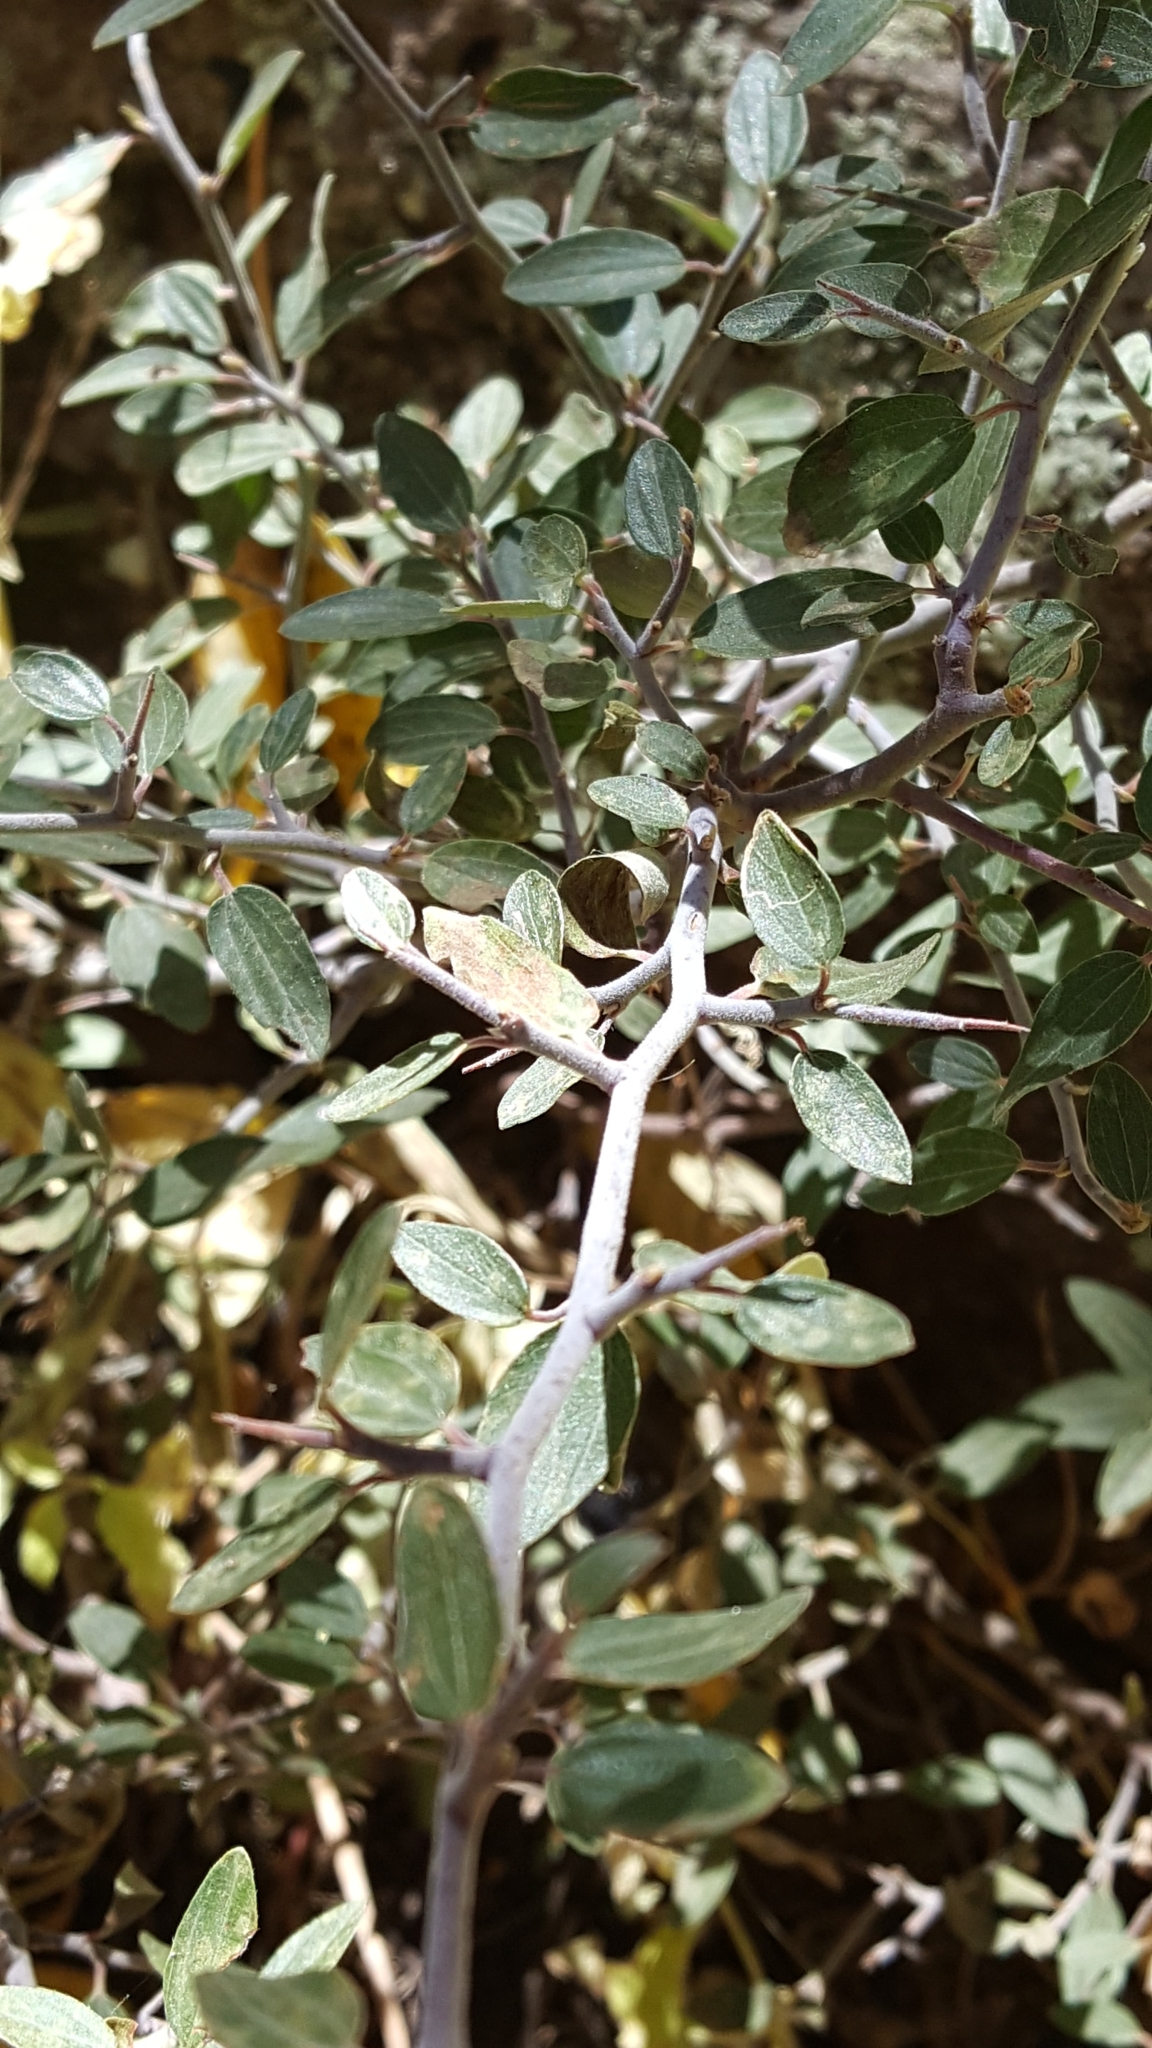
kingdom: Plantae
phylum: Tracheophyta
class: Magnoliopsida
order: Rosales
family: Rhamnaceae
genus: Ceanothus
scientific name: Ceanothus fendleri
